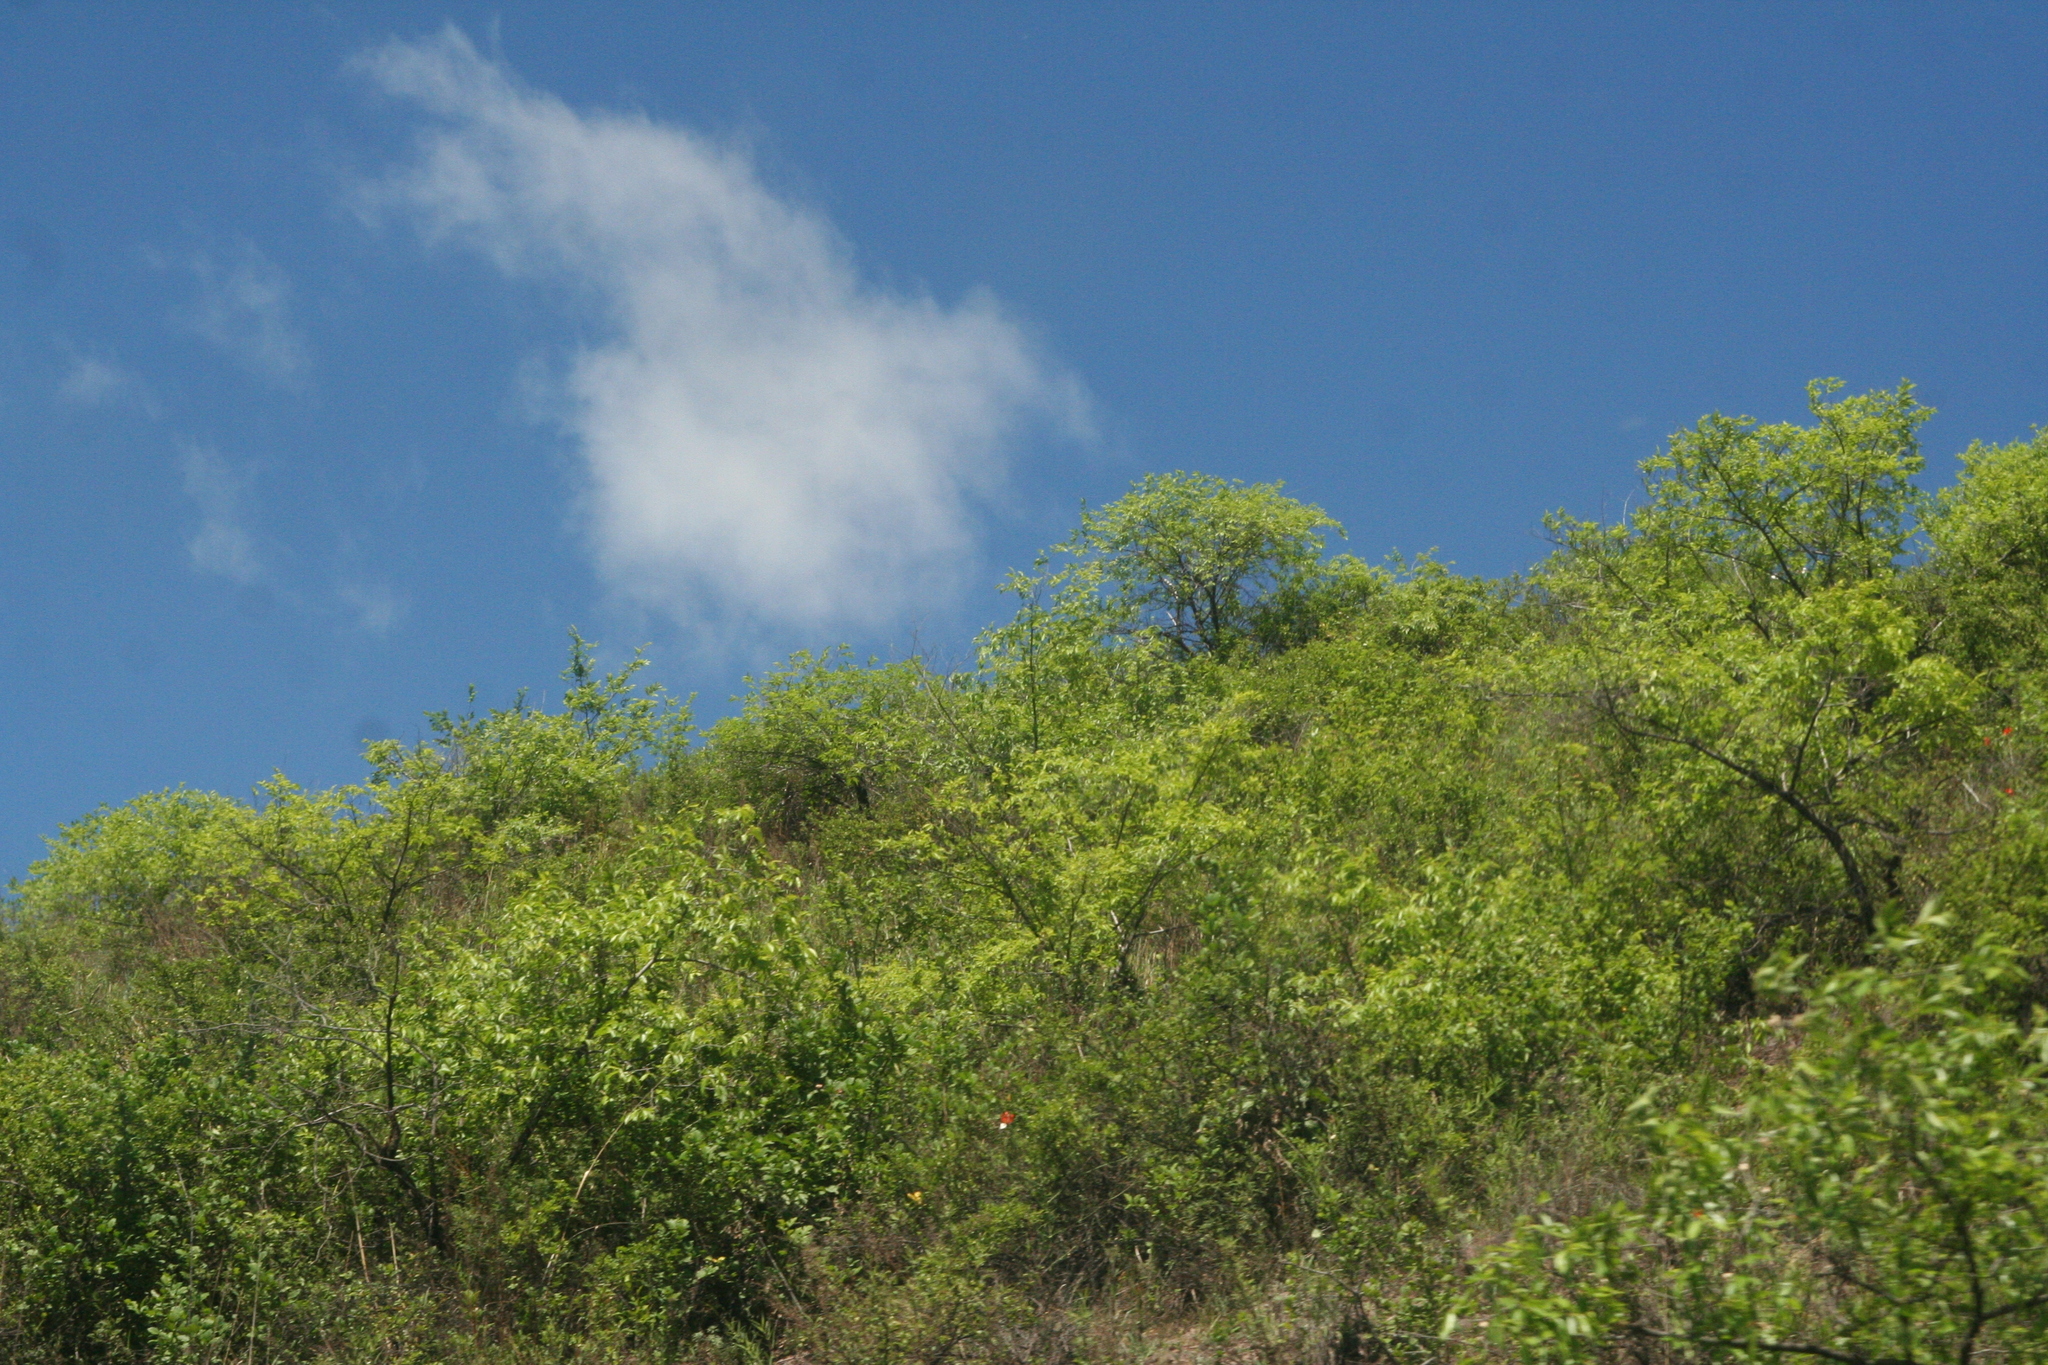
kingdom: Plantae
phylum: Tracheophyta
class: Magnoliopsida
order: Rosales
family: Ulmaceae
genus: Ulmus
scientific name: Ulmus pumila
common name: Siberian elm
